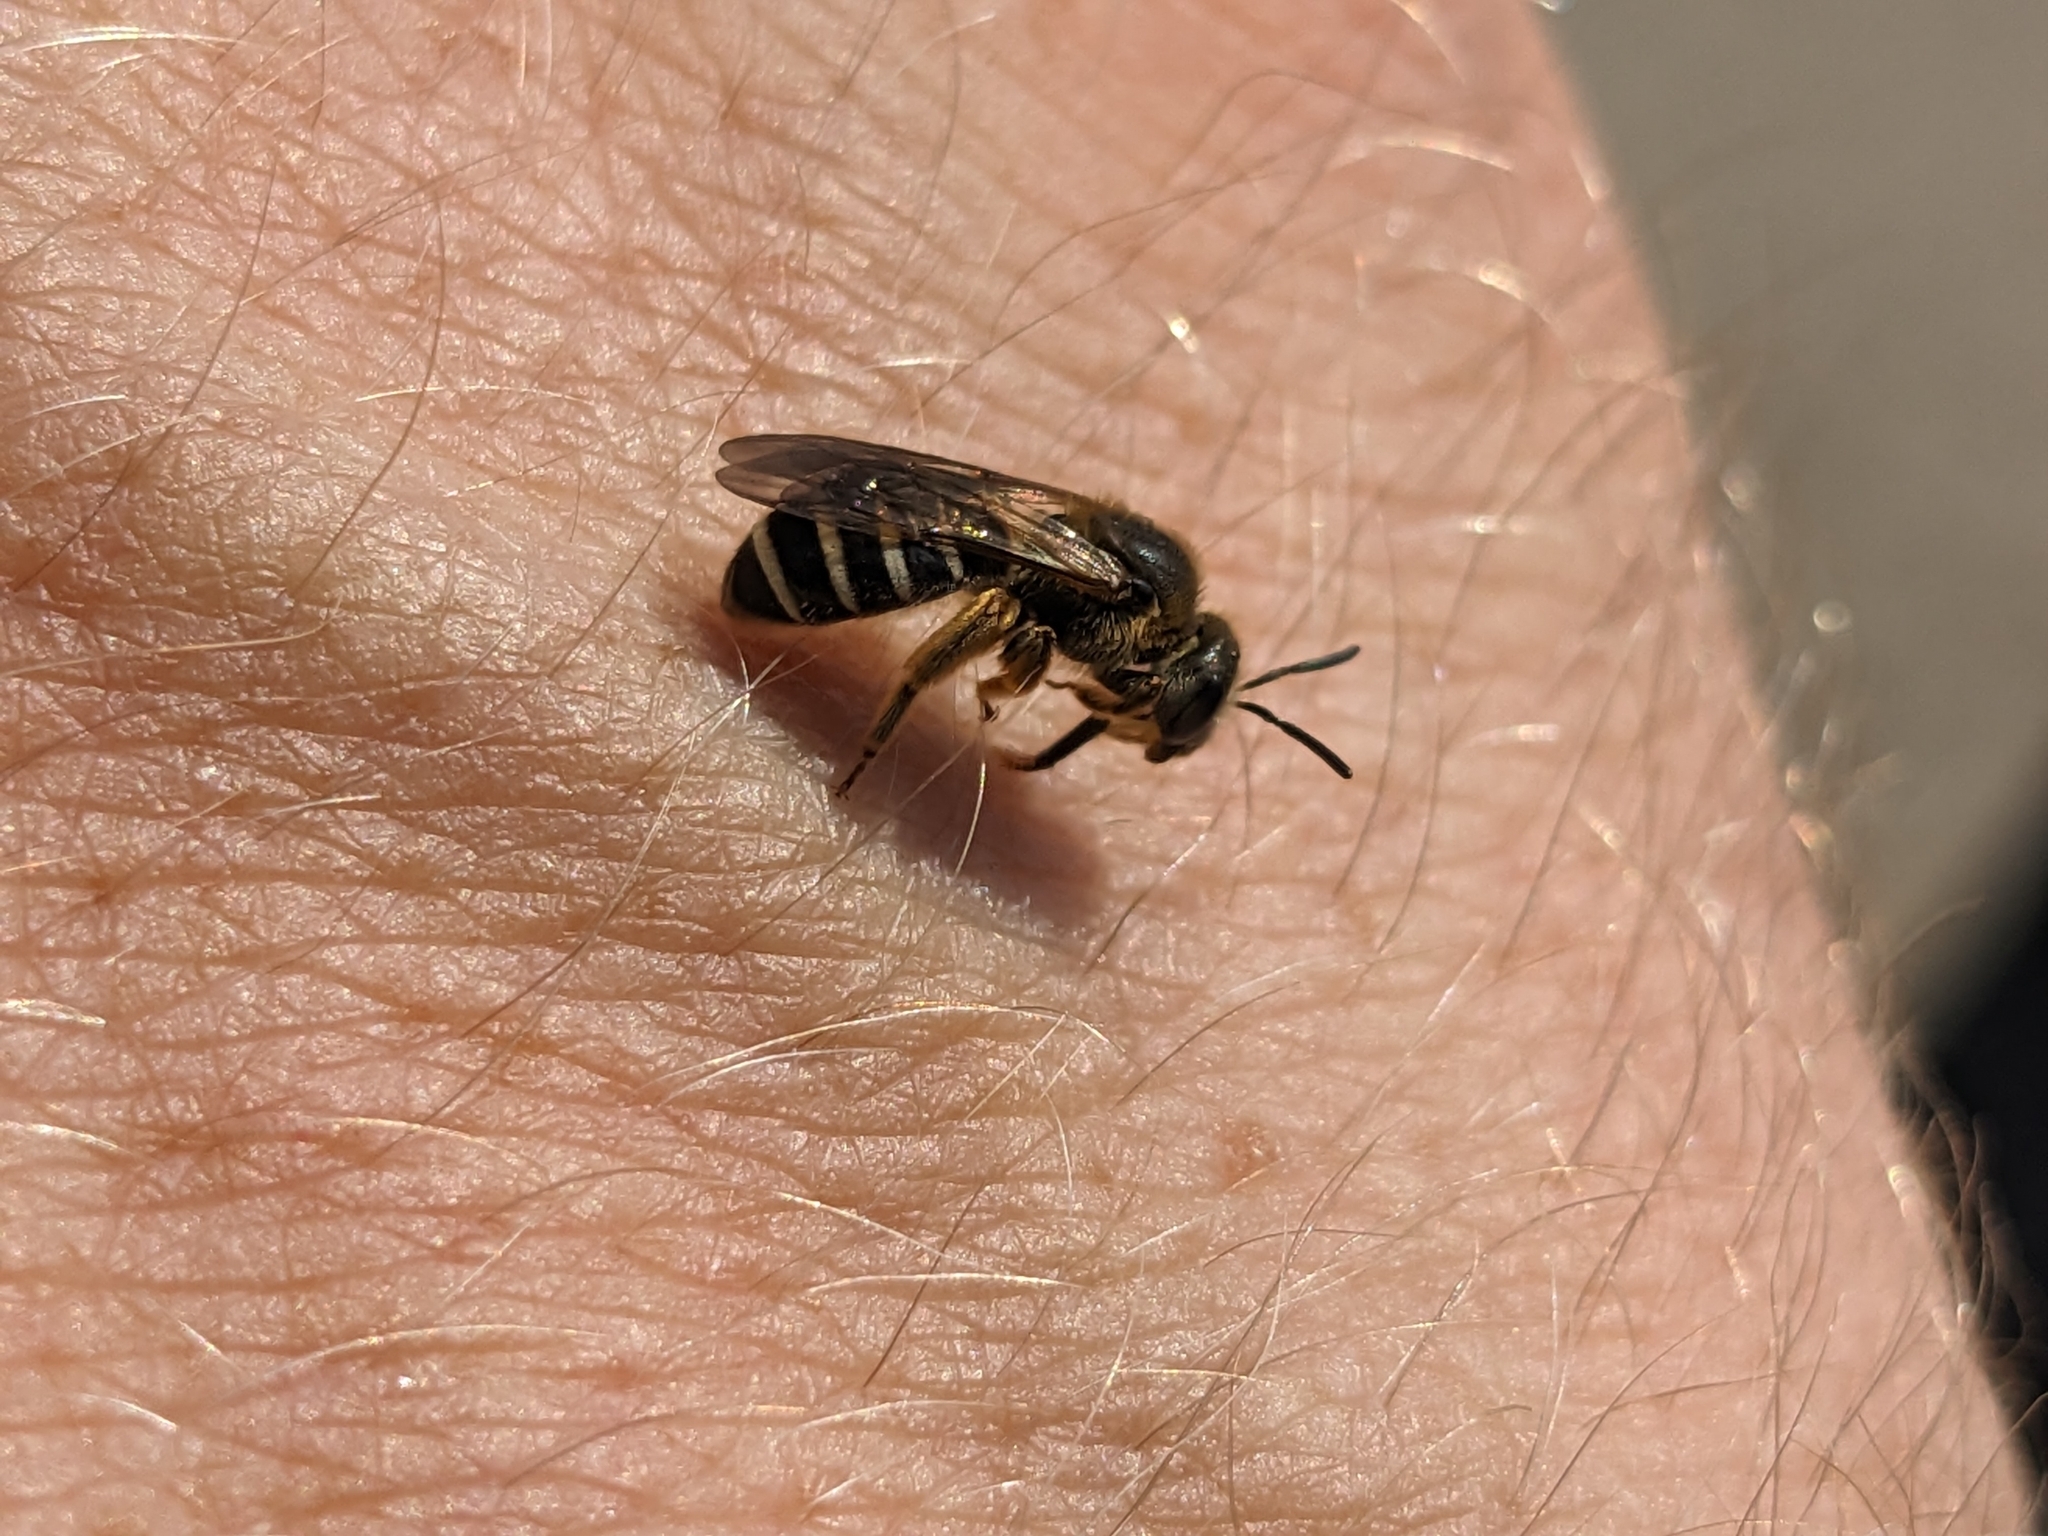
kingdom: Animalia
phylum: Arthropoda
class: Insecta
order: Hymenoptera
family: Halictidae
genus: Halictus
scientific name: Halictus rubicundus
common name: Orange-legged furrow bee
